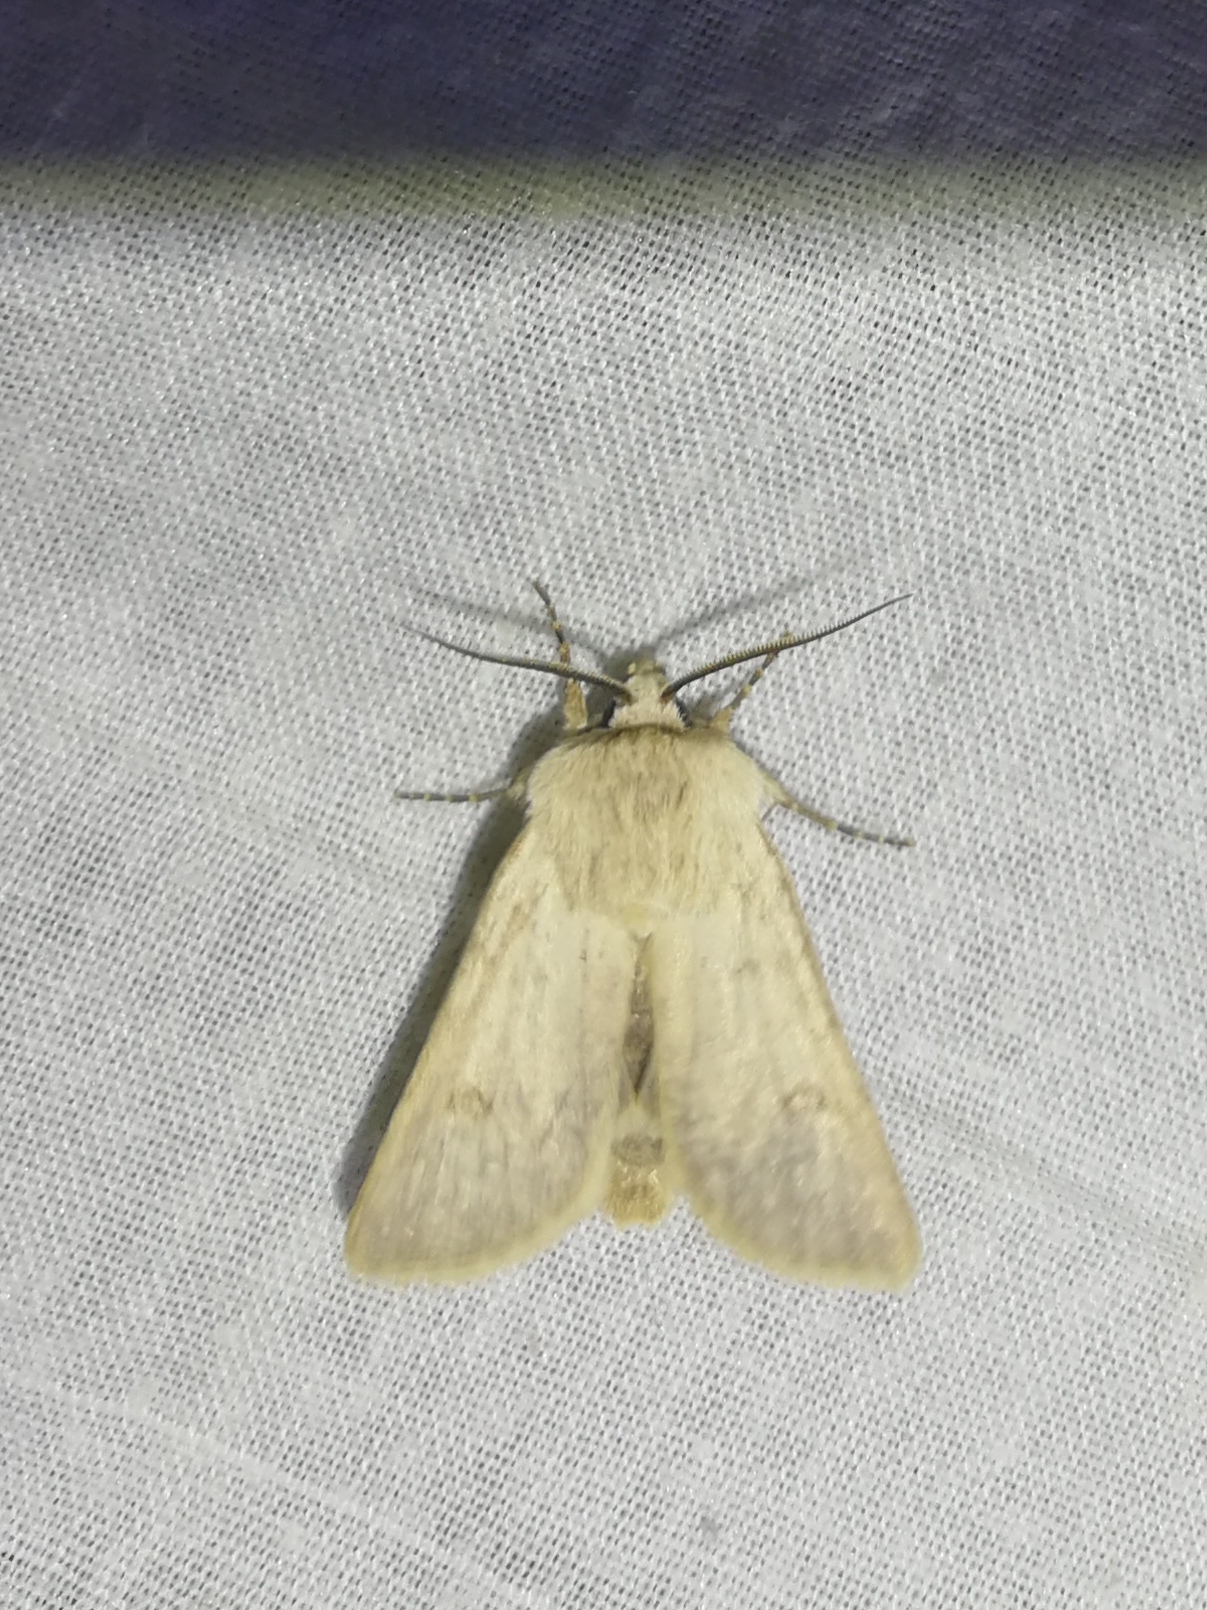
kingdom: Animalia
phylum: Arthropoda
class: Insecta
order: Lepidoptera
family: Noctuidae
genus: Agrotis
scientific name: Agrotis turatii
